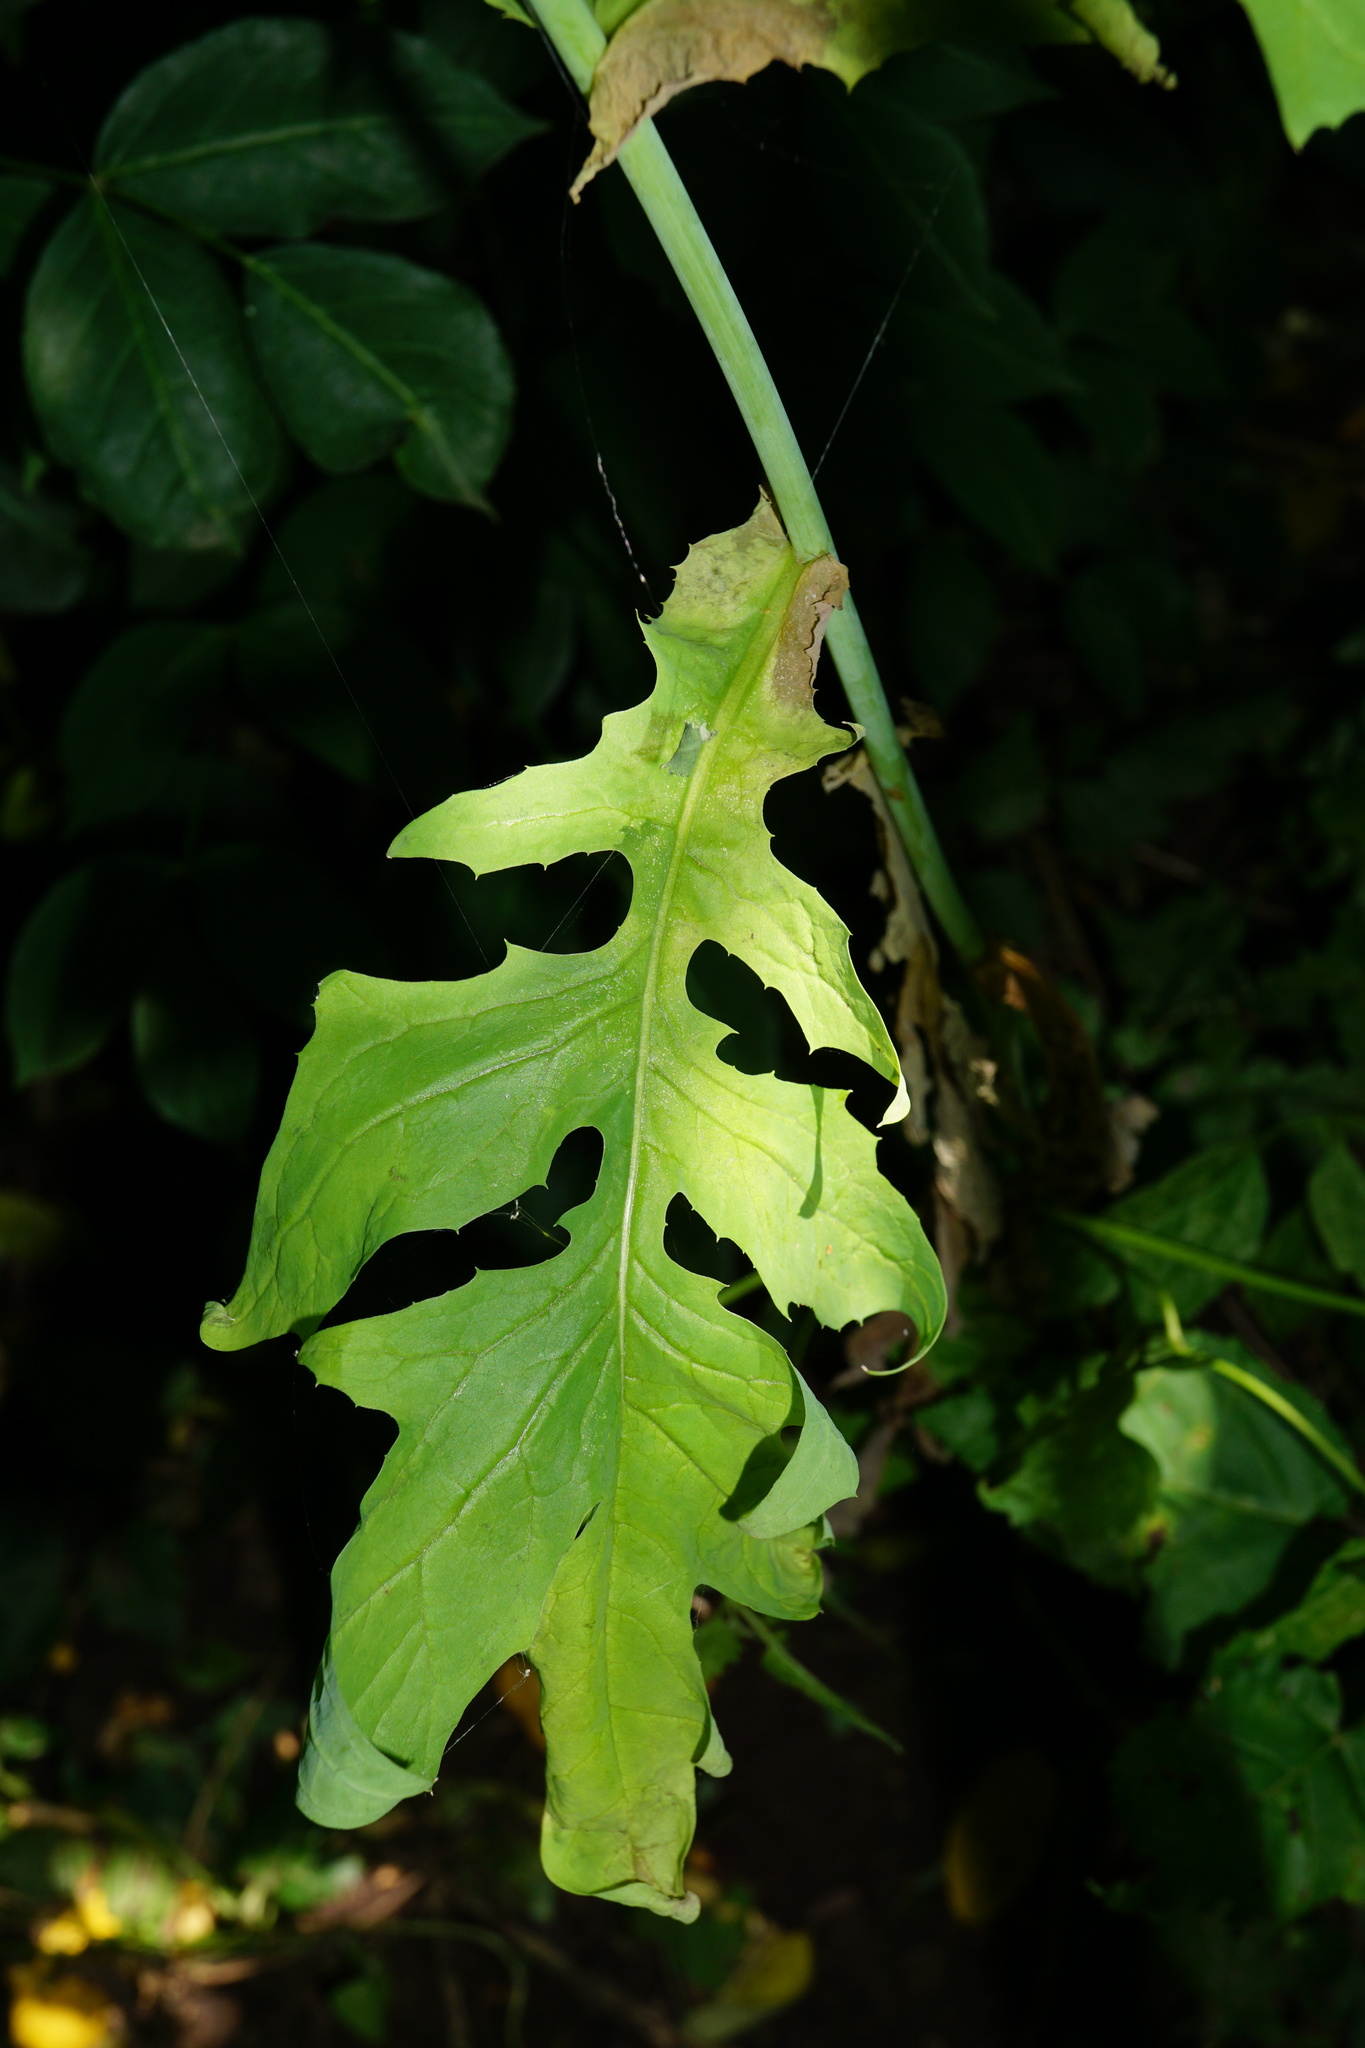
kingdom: Plantae
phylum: Tracheophyta
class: Magnoliopsida
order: Asterales
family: Asteraceae
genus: Lactuca
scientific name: Lactuca quercina
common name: Wild lettuce
